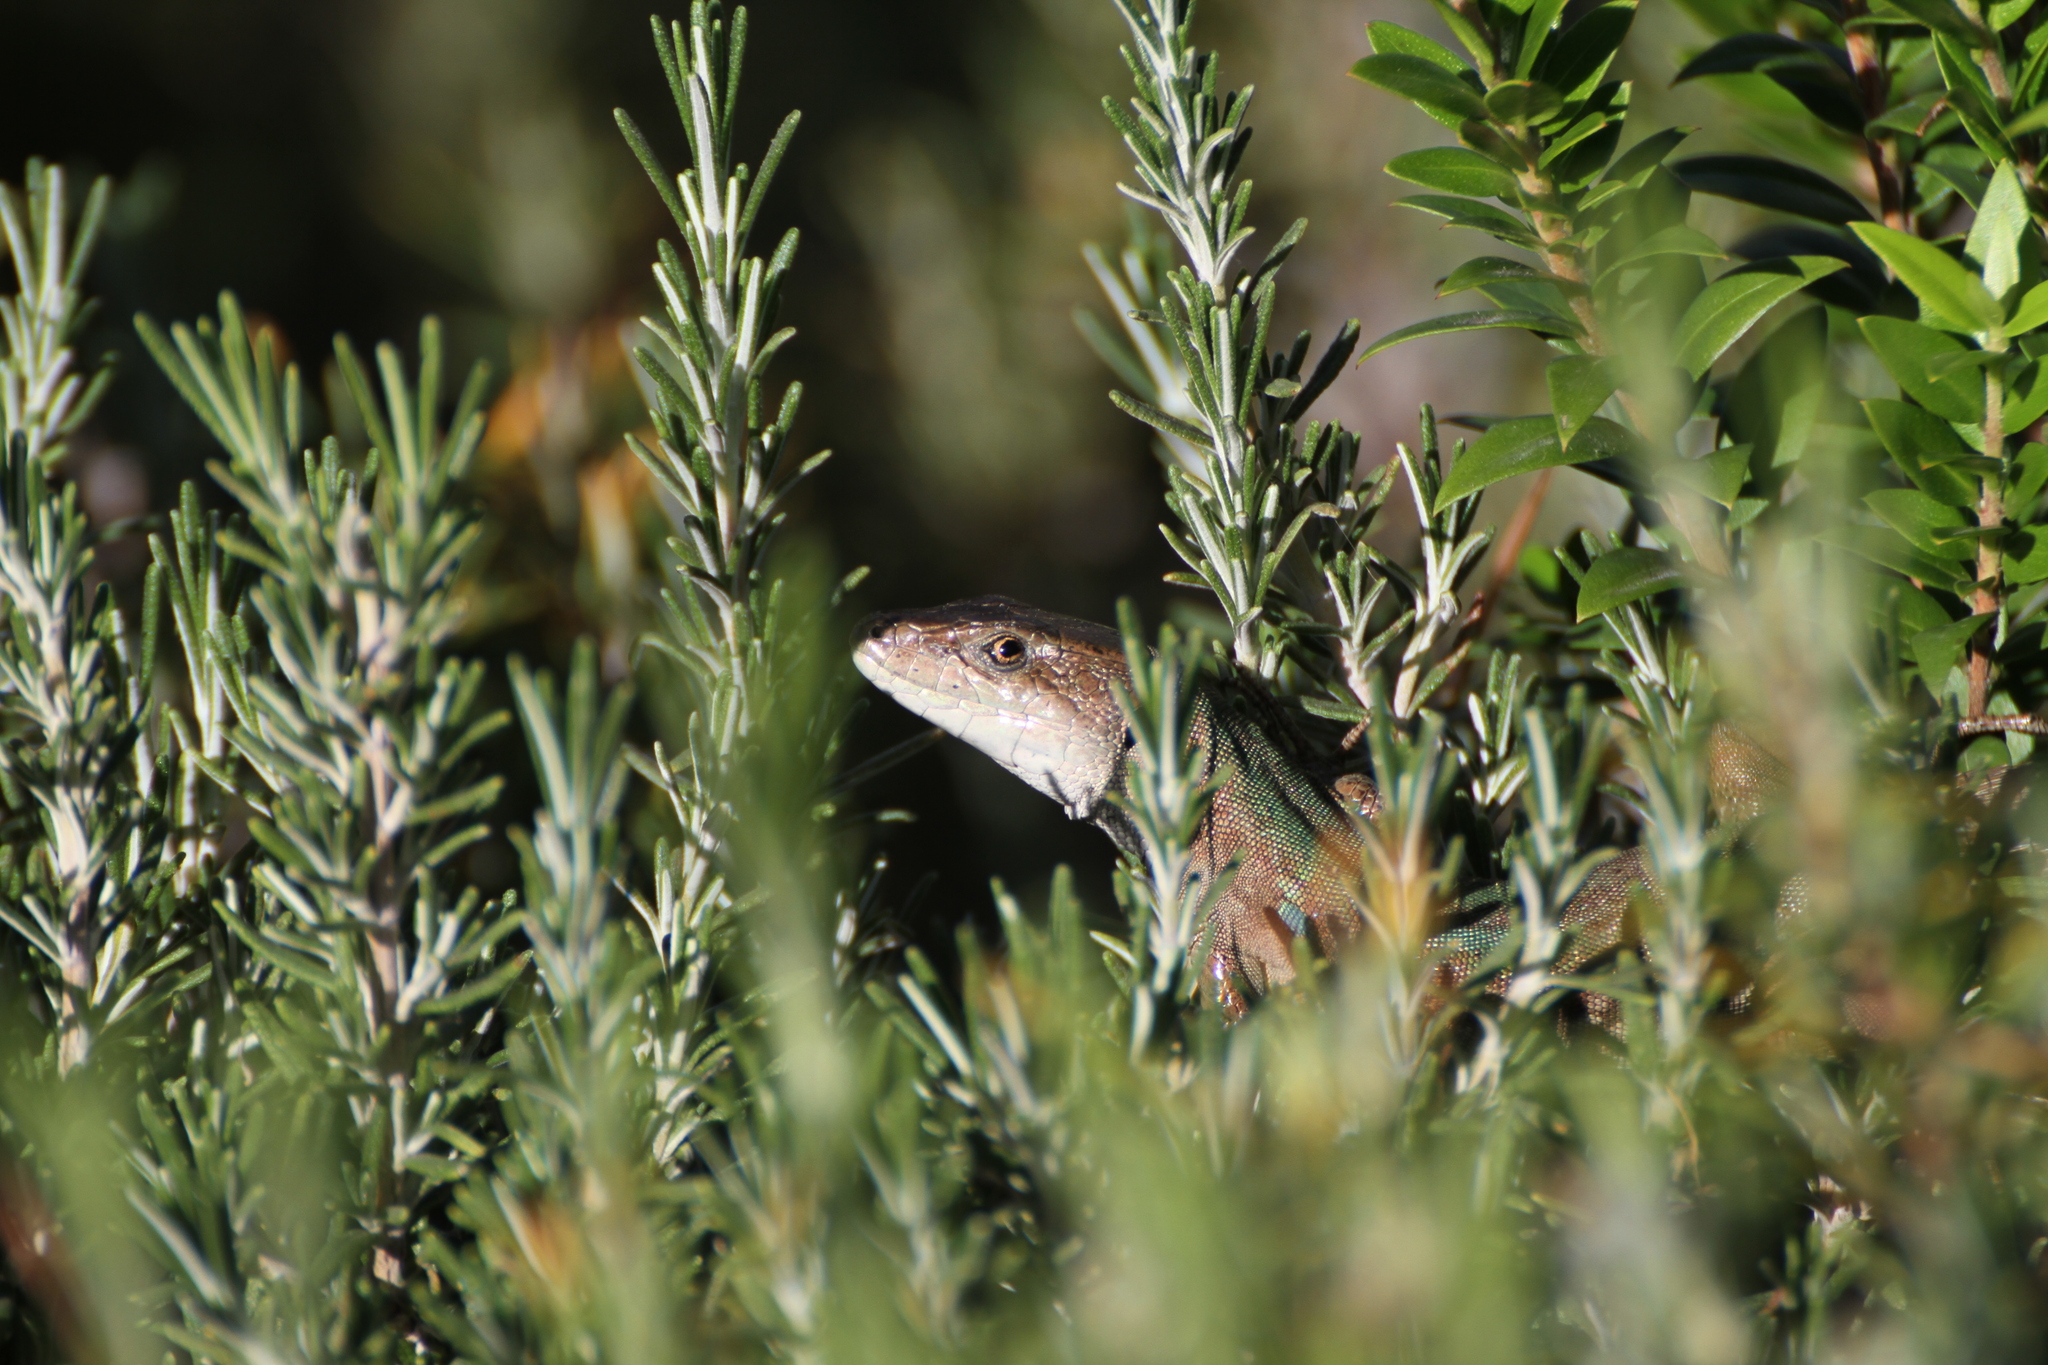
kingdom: Animalia
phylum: Chordata
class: Squamata
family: Lacertidae
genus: Podarcis
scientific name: Podarcis siculus
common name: Italian wall lizard
